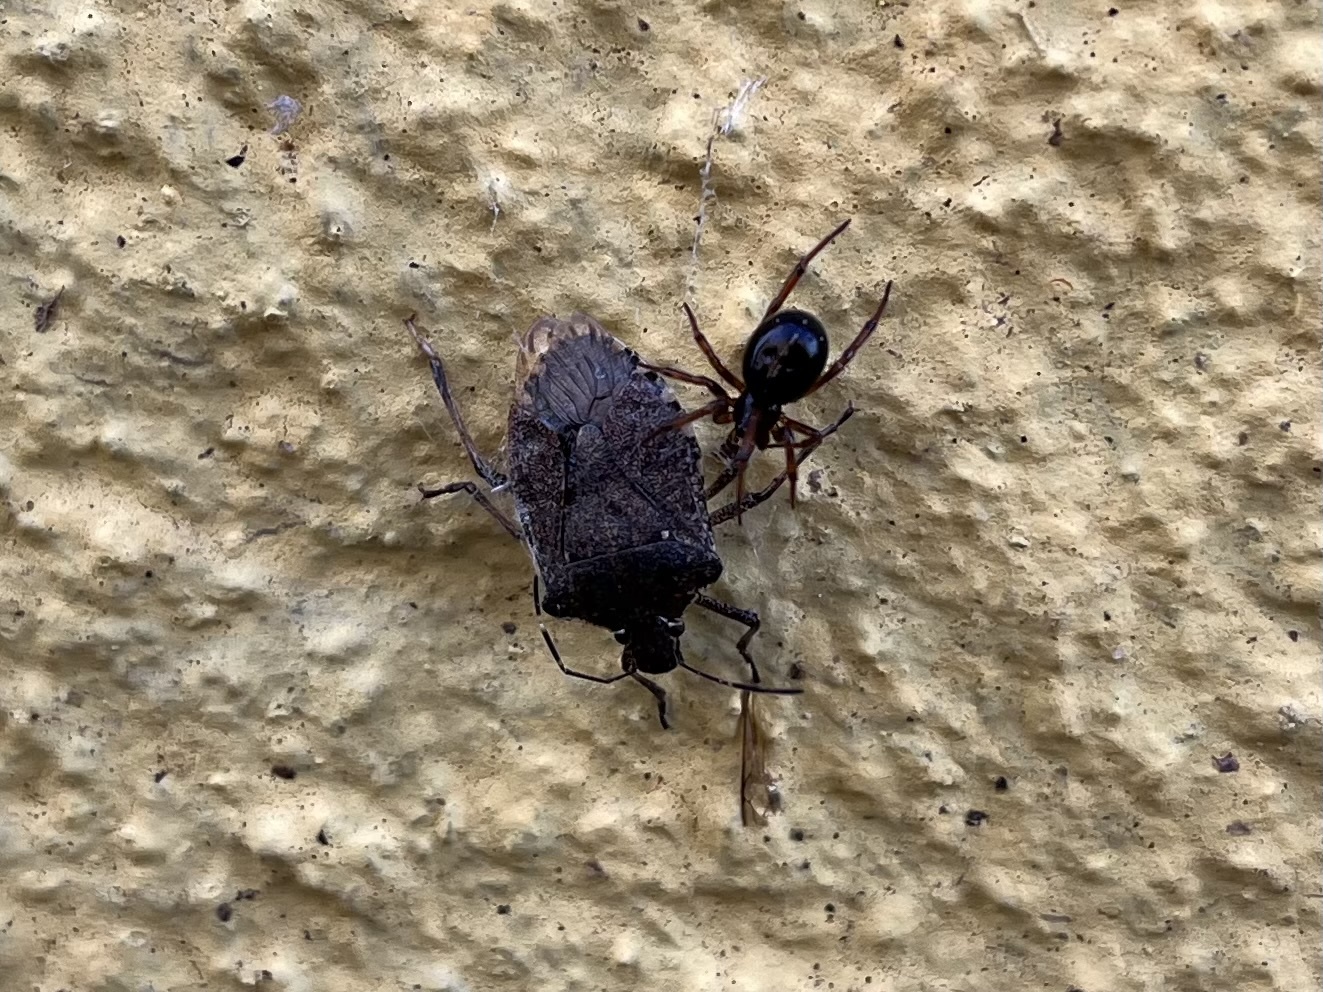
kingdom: Animalia
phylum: Arthropoda
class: Insecta
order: Hemiptera
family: Pentatomidae
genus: Halyomorpha
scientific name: Halyomorpha halys
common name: Brown marmorated stink bug
